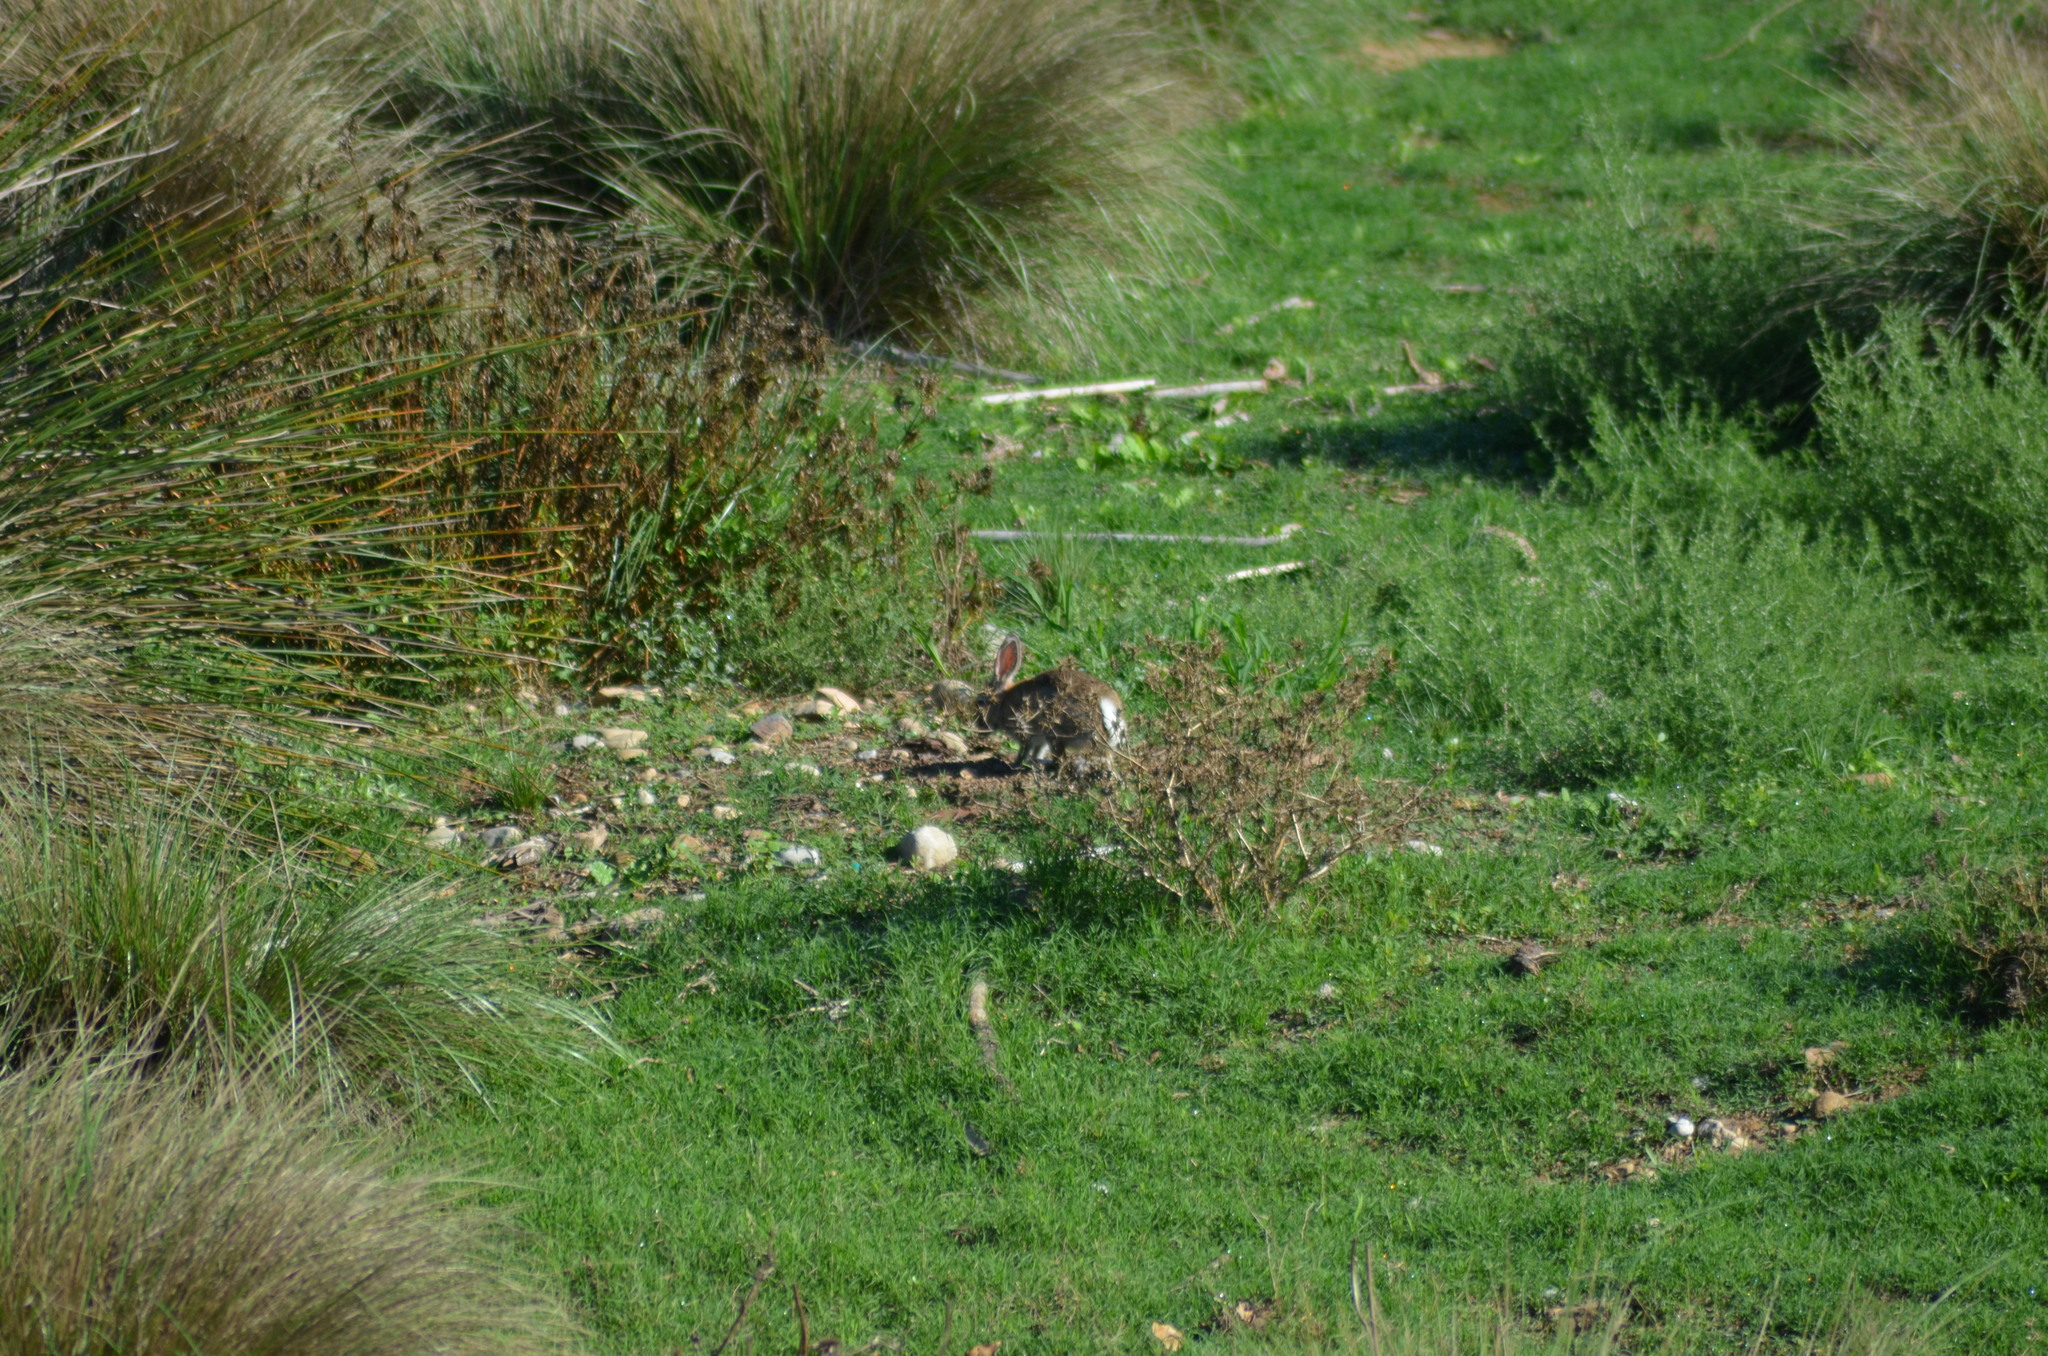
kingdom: Animalia
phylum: Chordata
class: Mammalia
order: Lagomorpha
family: Leporidae
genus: Oryctolagus
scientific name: Oryctolagus cuniculus
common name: European rabbit
